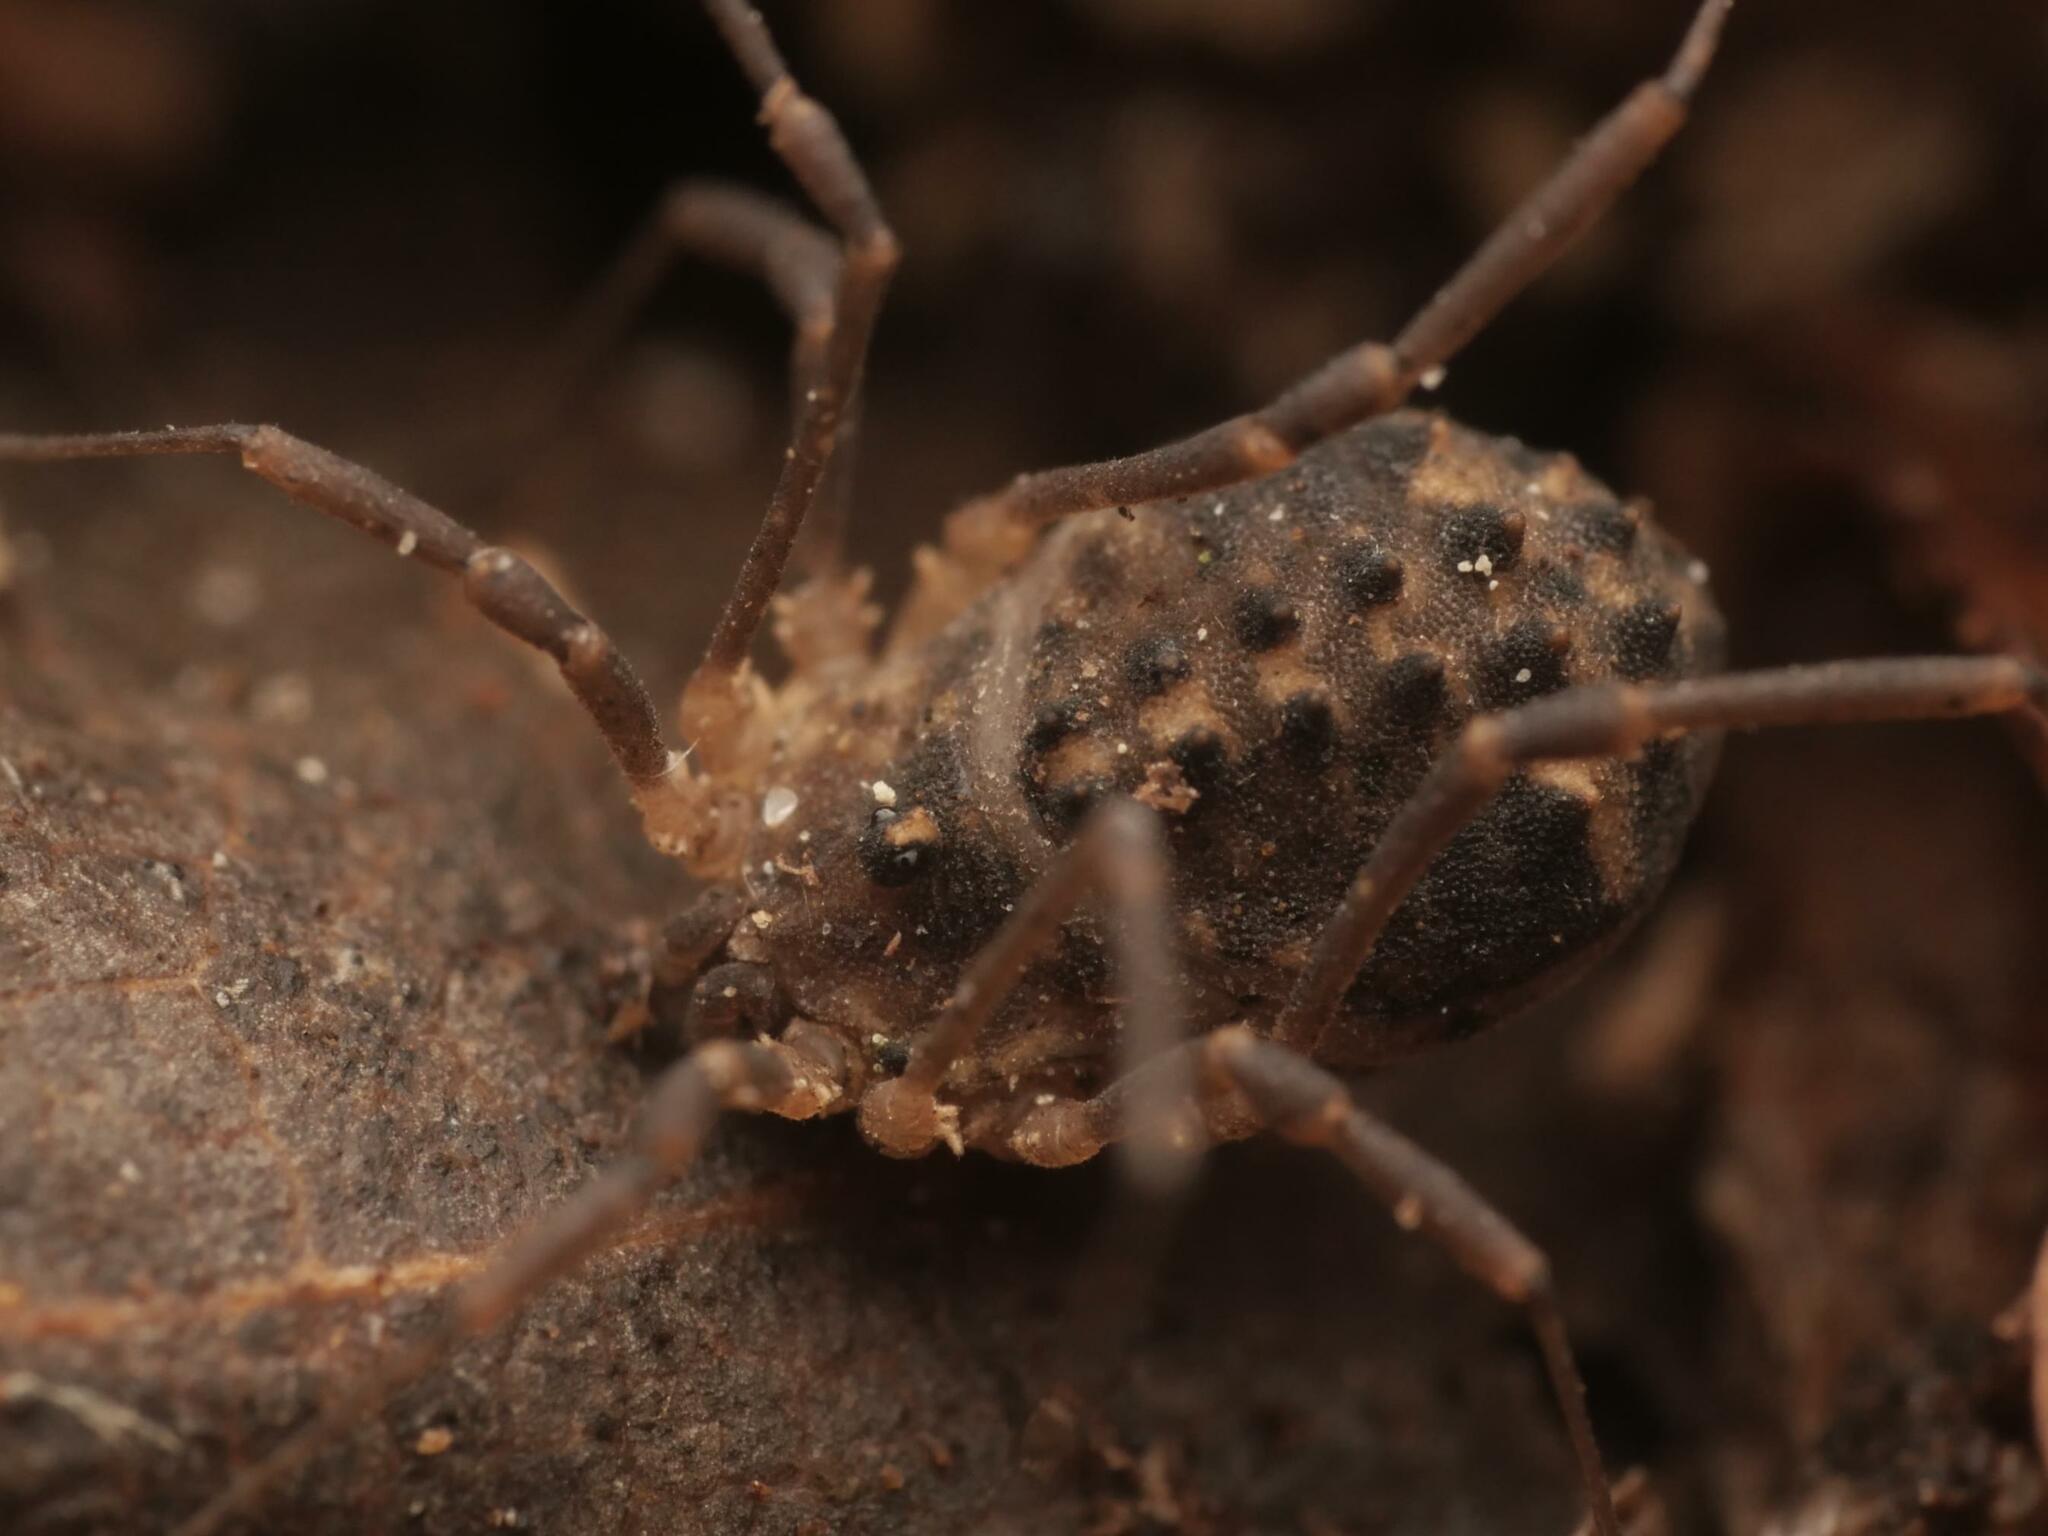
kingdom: Animalia
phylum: Arthropoda
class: Arachnida
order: Opiliones
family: Sclerosomatidae
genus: Astrobunus
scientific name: Astrobunus laevipes
